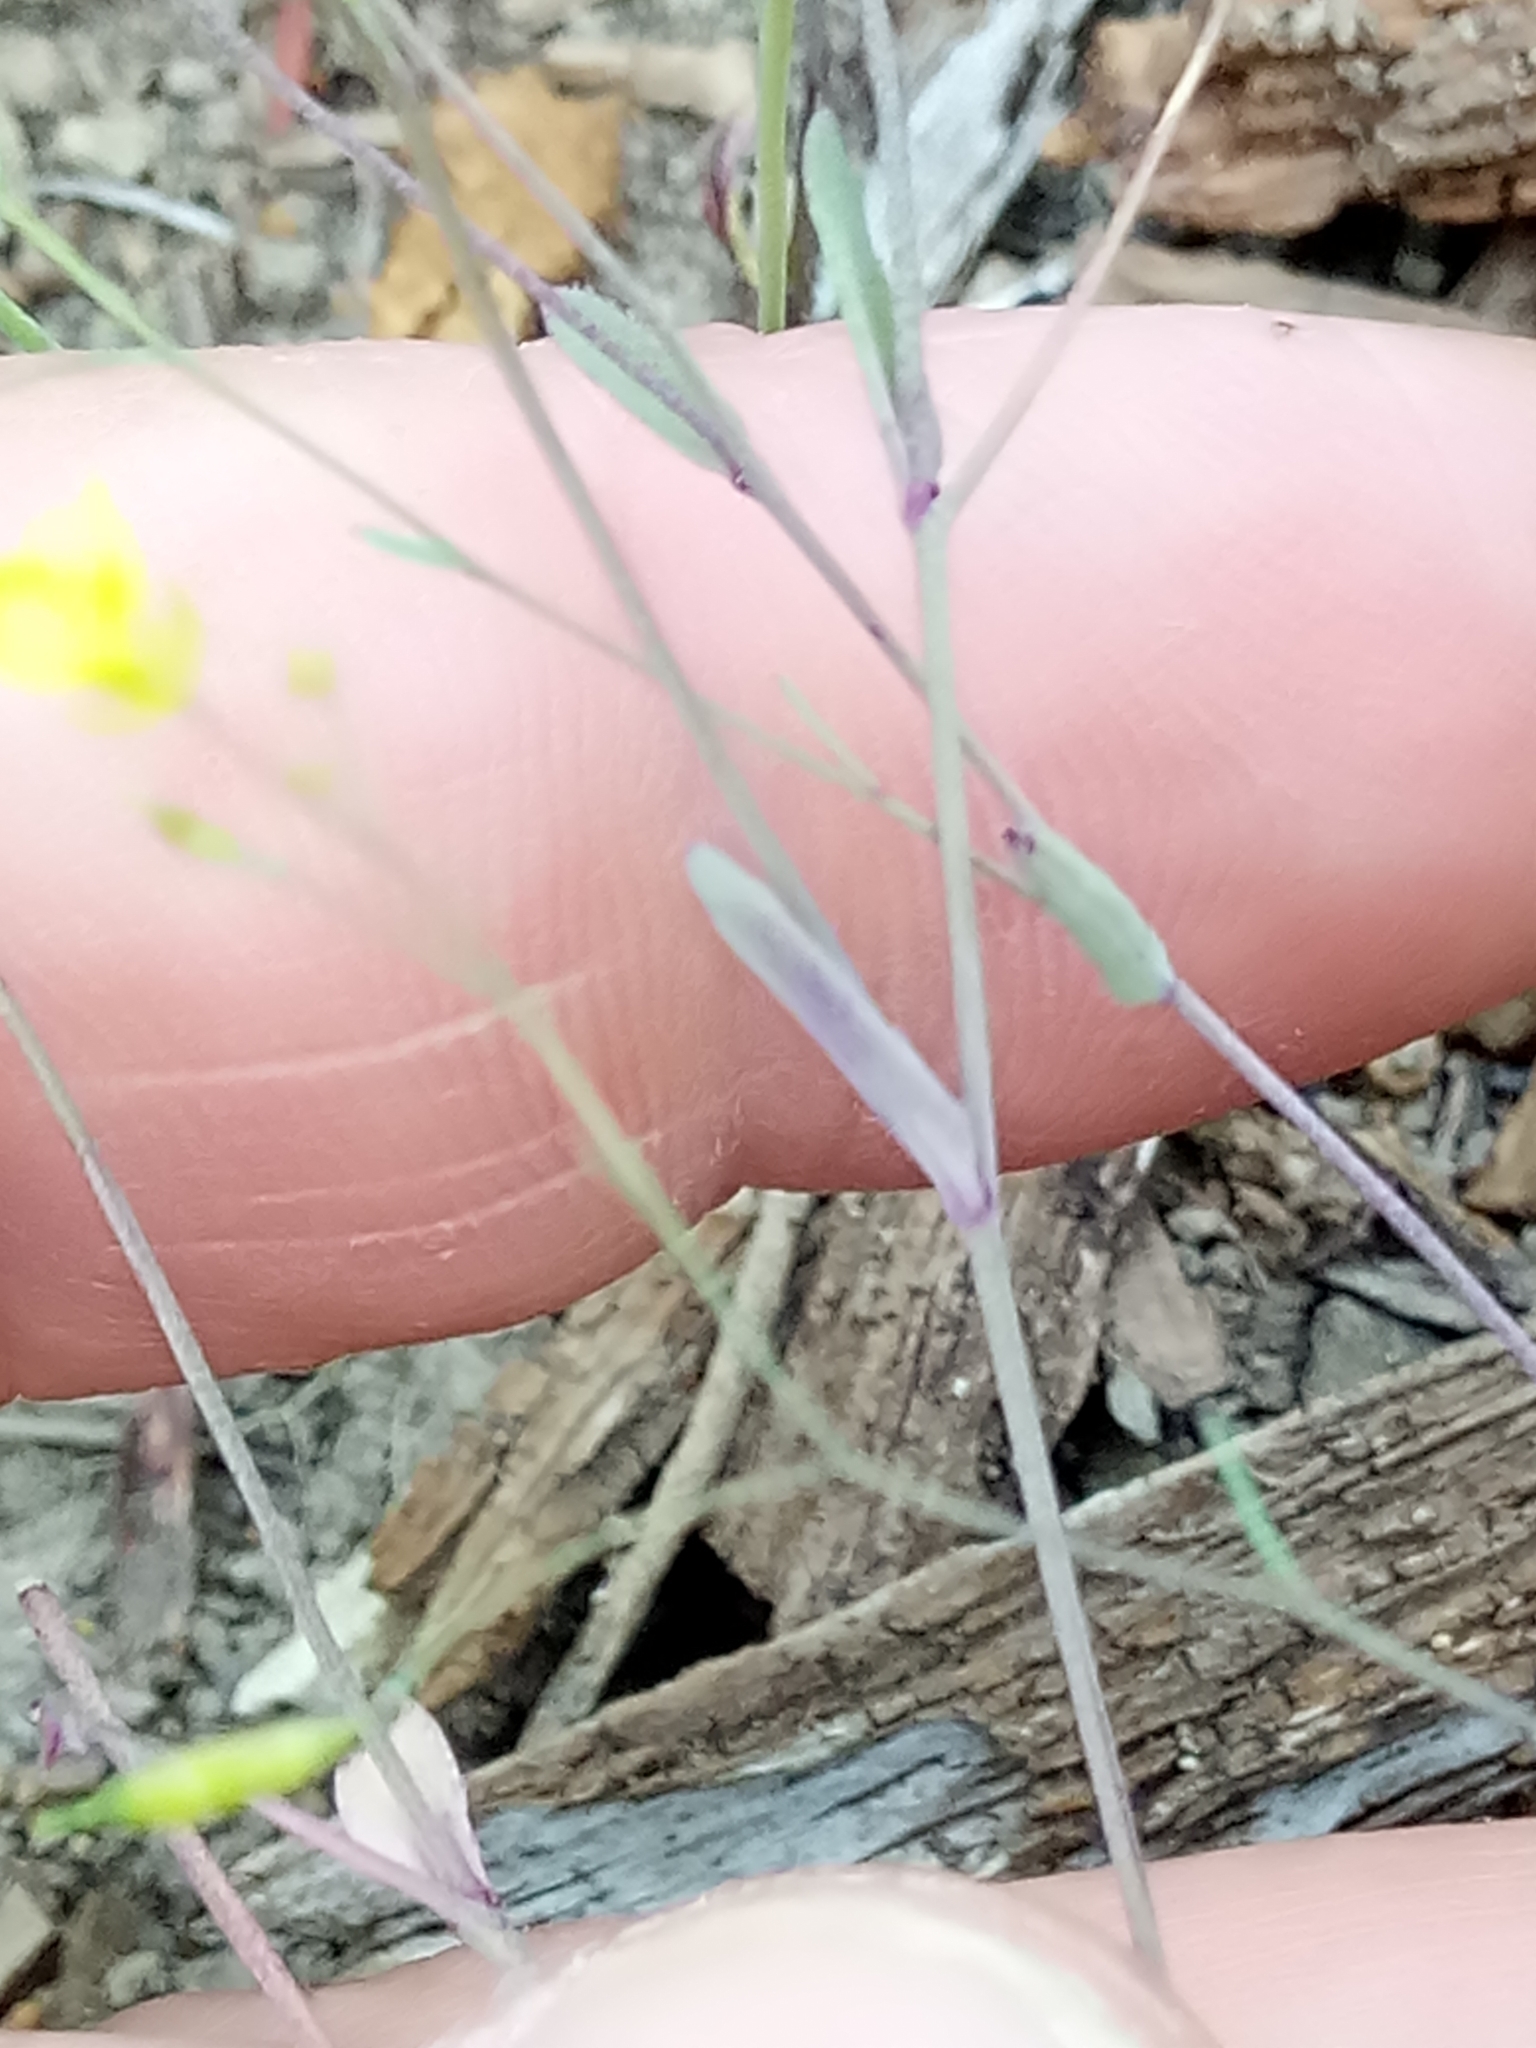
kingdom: Plantae
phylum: Tracheophyta
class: Magnoliopsida
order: Brassicales
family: Brassicaceae
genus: Brassica
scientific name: Brassica souliei
